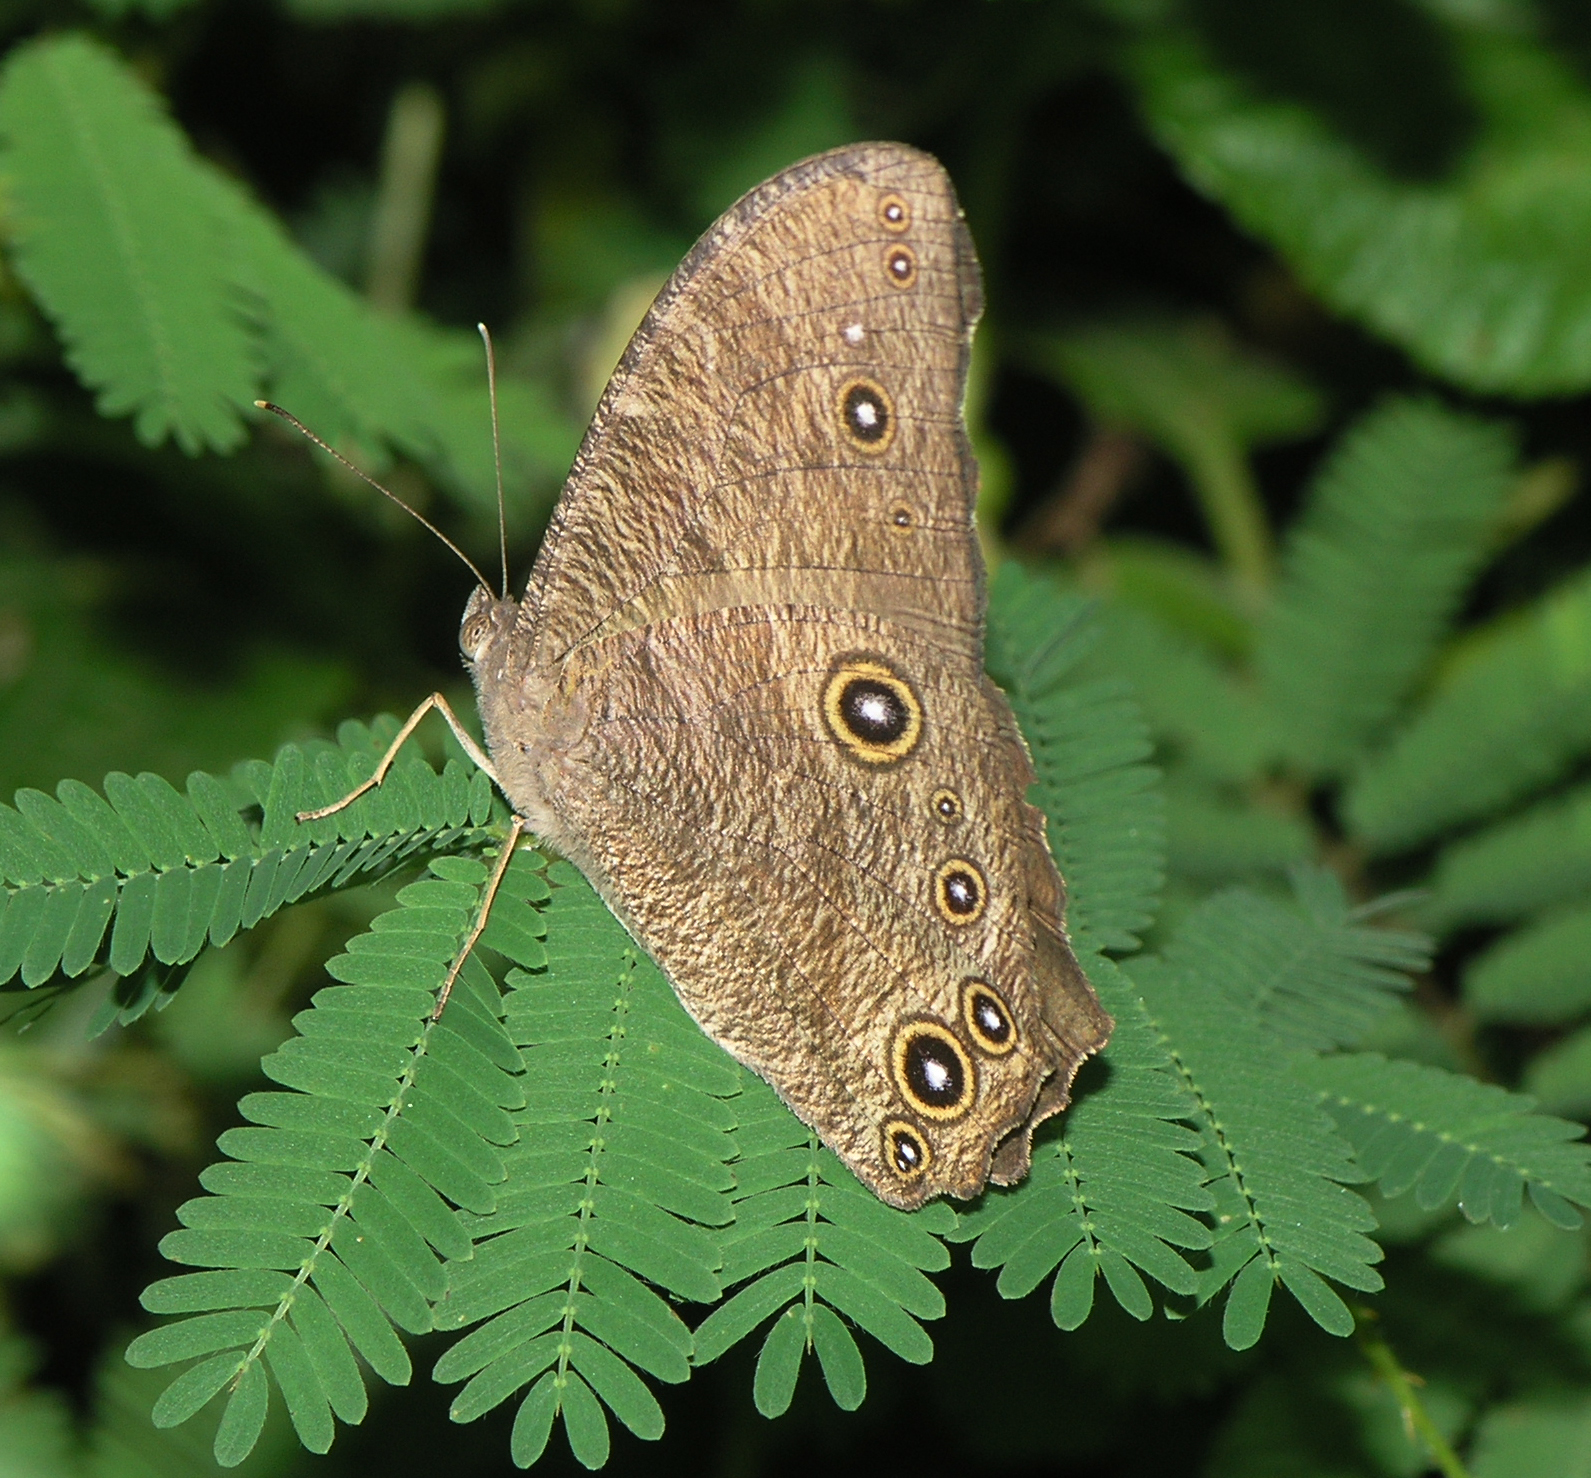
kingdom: Animalia
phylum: Arthropoda
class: Insecta
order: Lepidoptera
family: Nymphalidae
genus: Melanitis
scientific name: Melanitis leda
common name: Twilight brown
